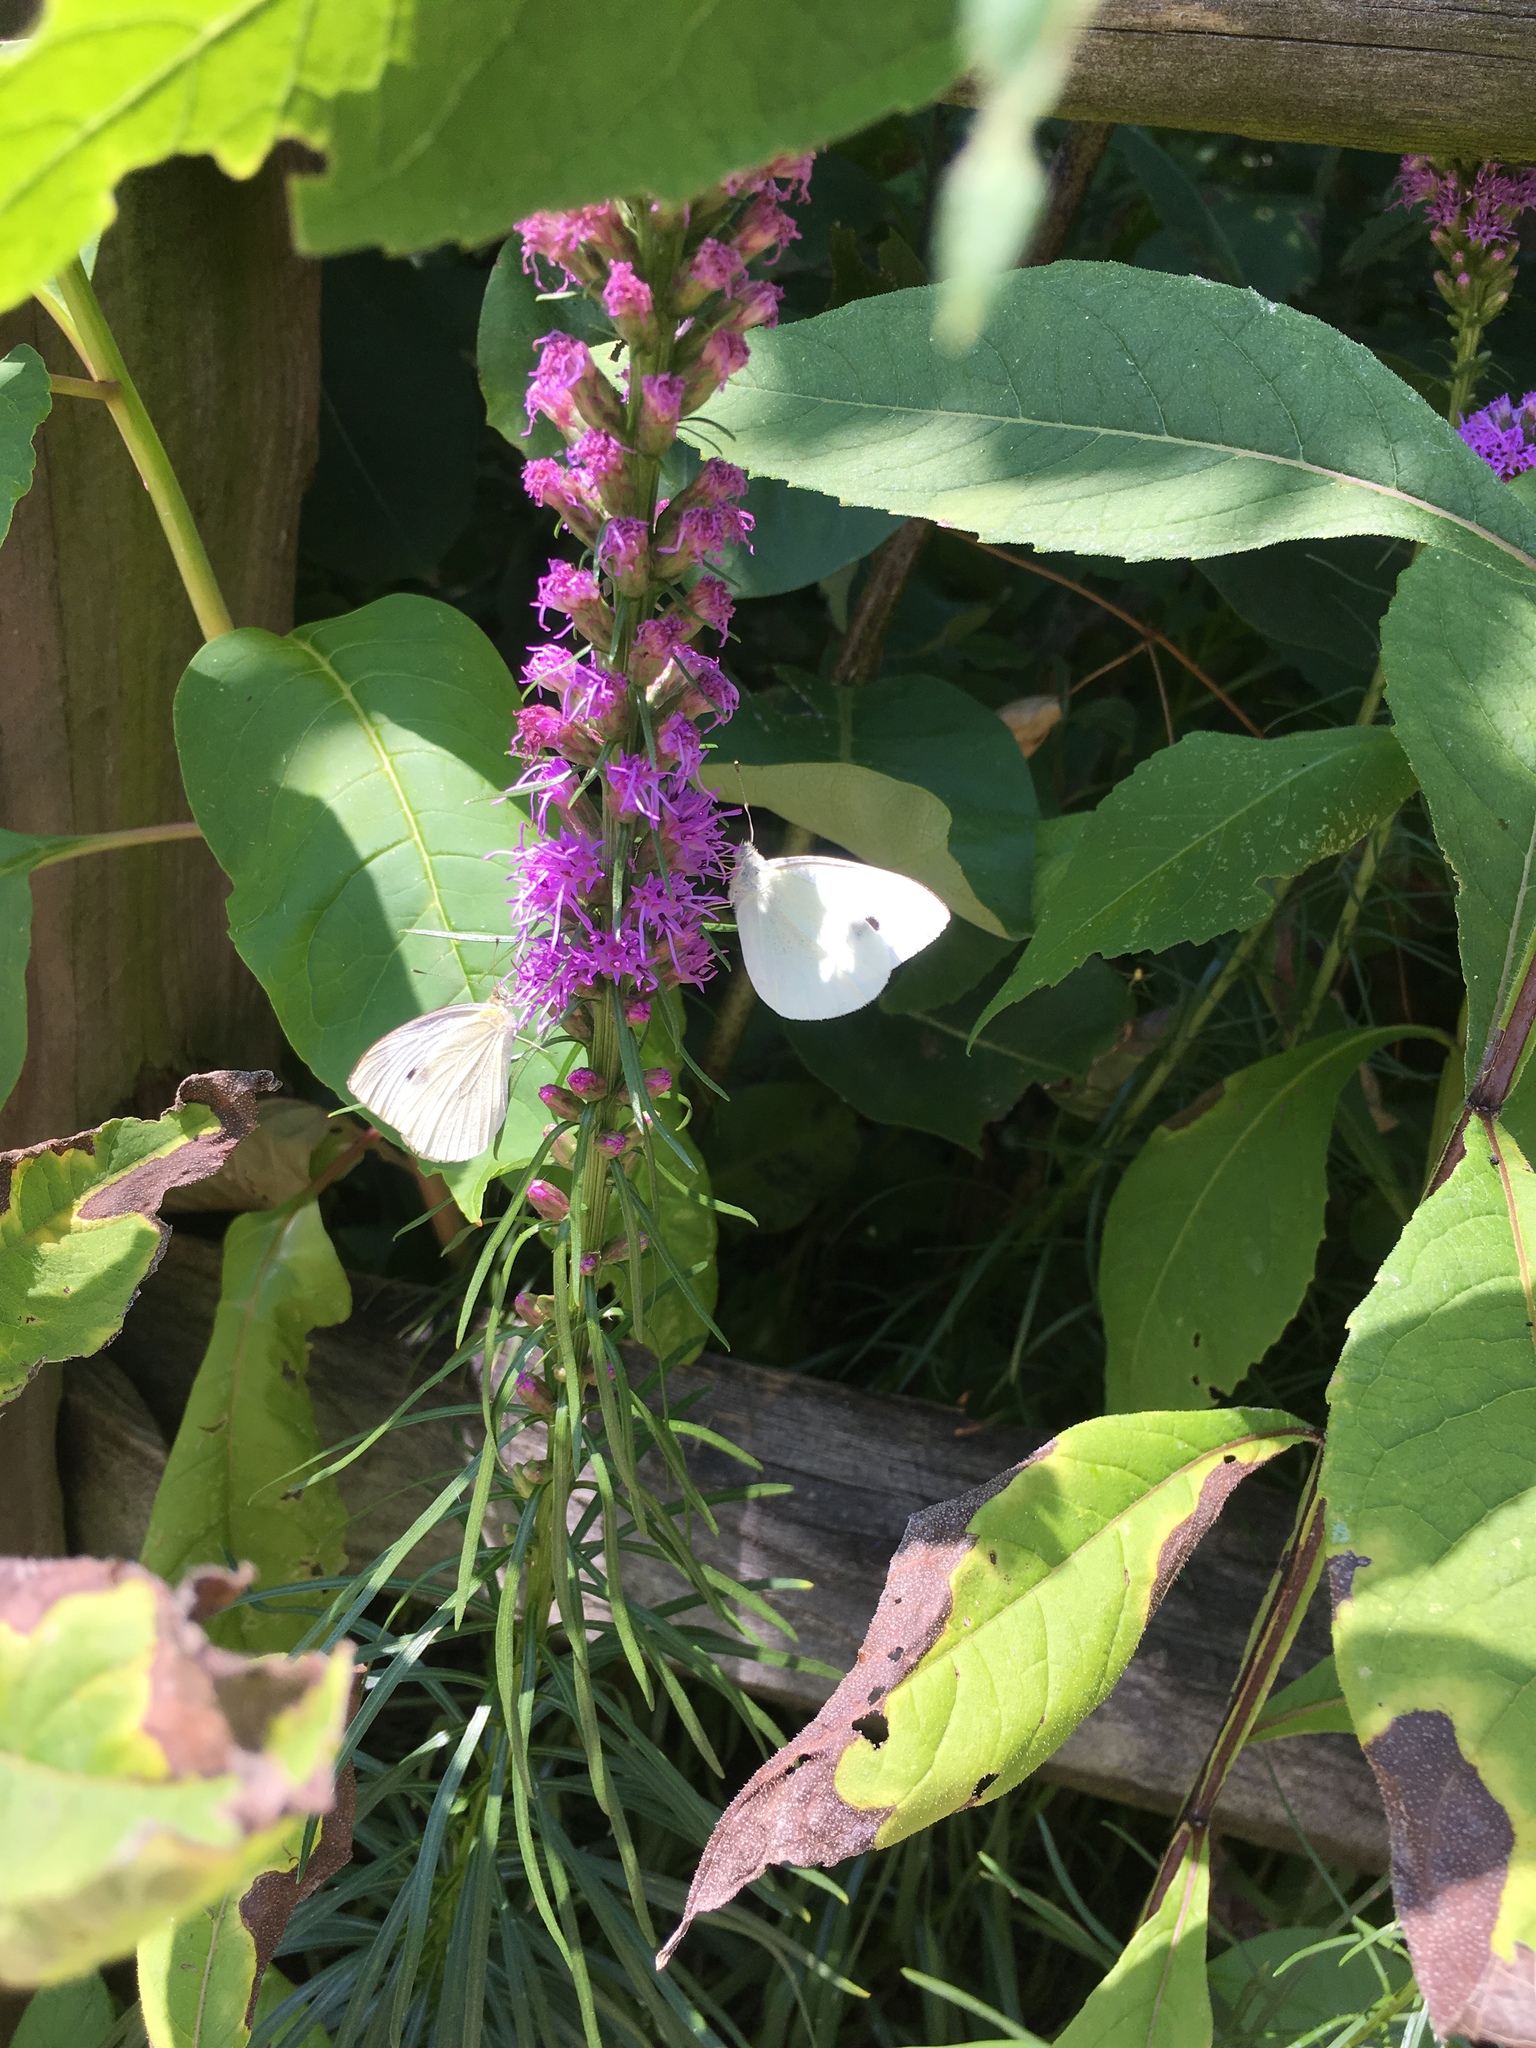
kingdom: Animalia
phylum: Arthropoda
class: Insecta
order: Lepidoptera
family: Pieridae
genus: Pieris
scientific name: Pieris rapae
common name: Small white
